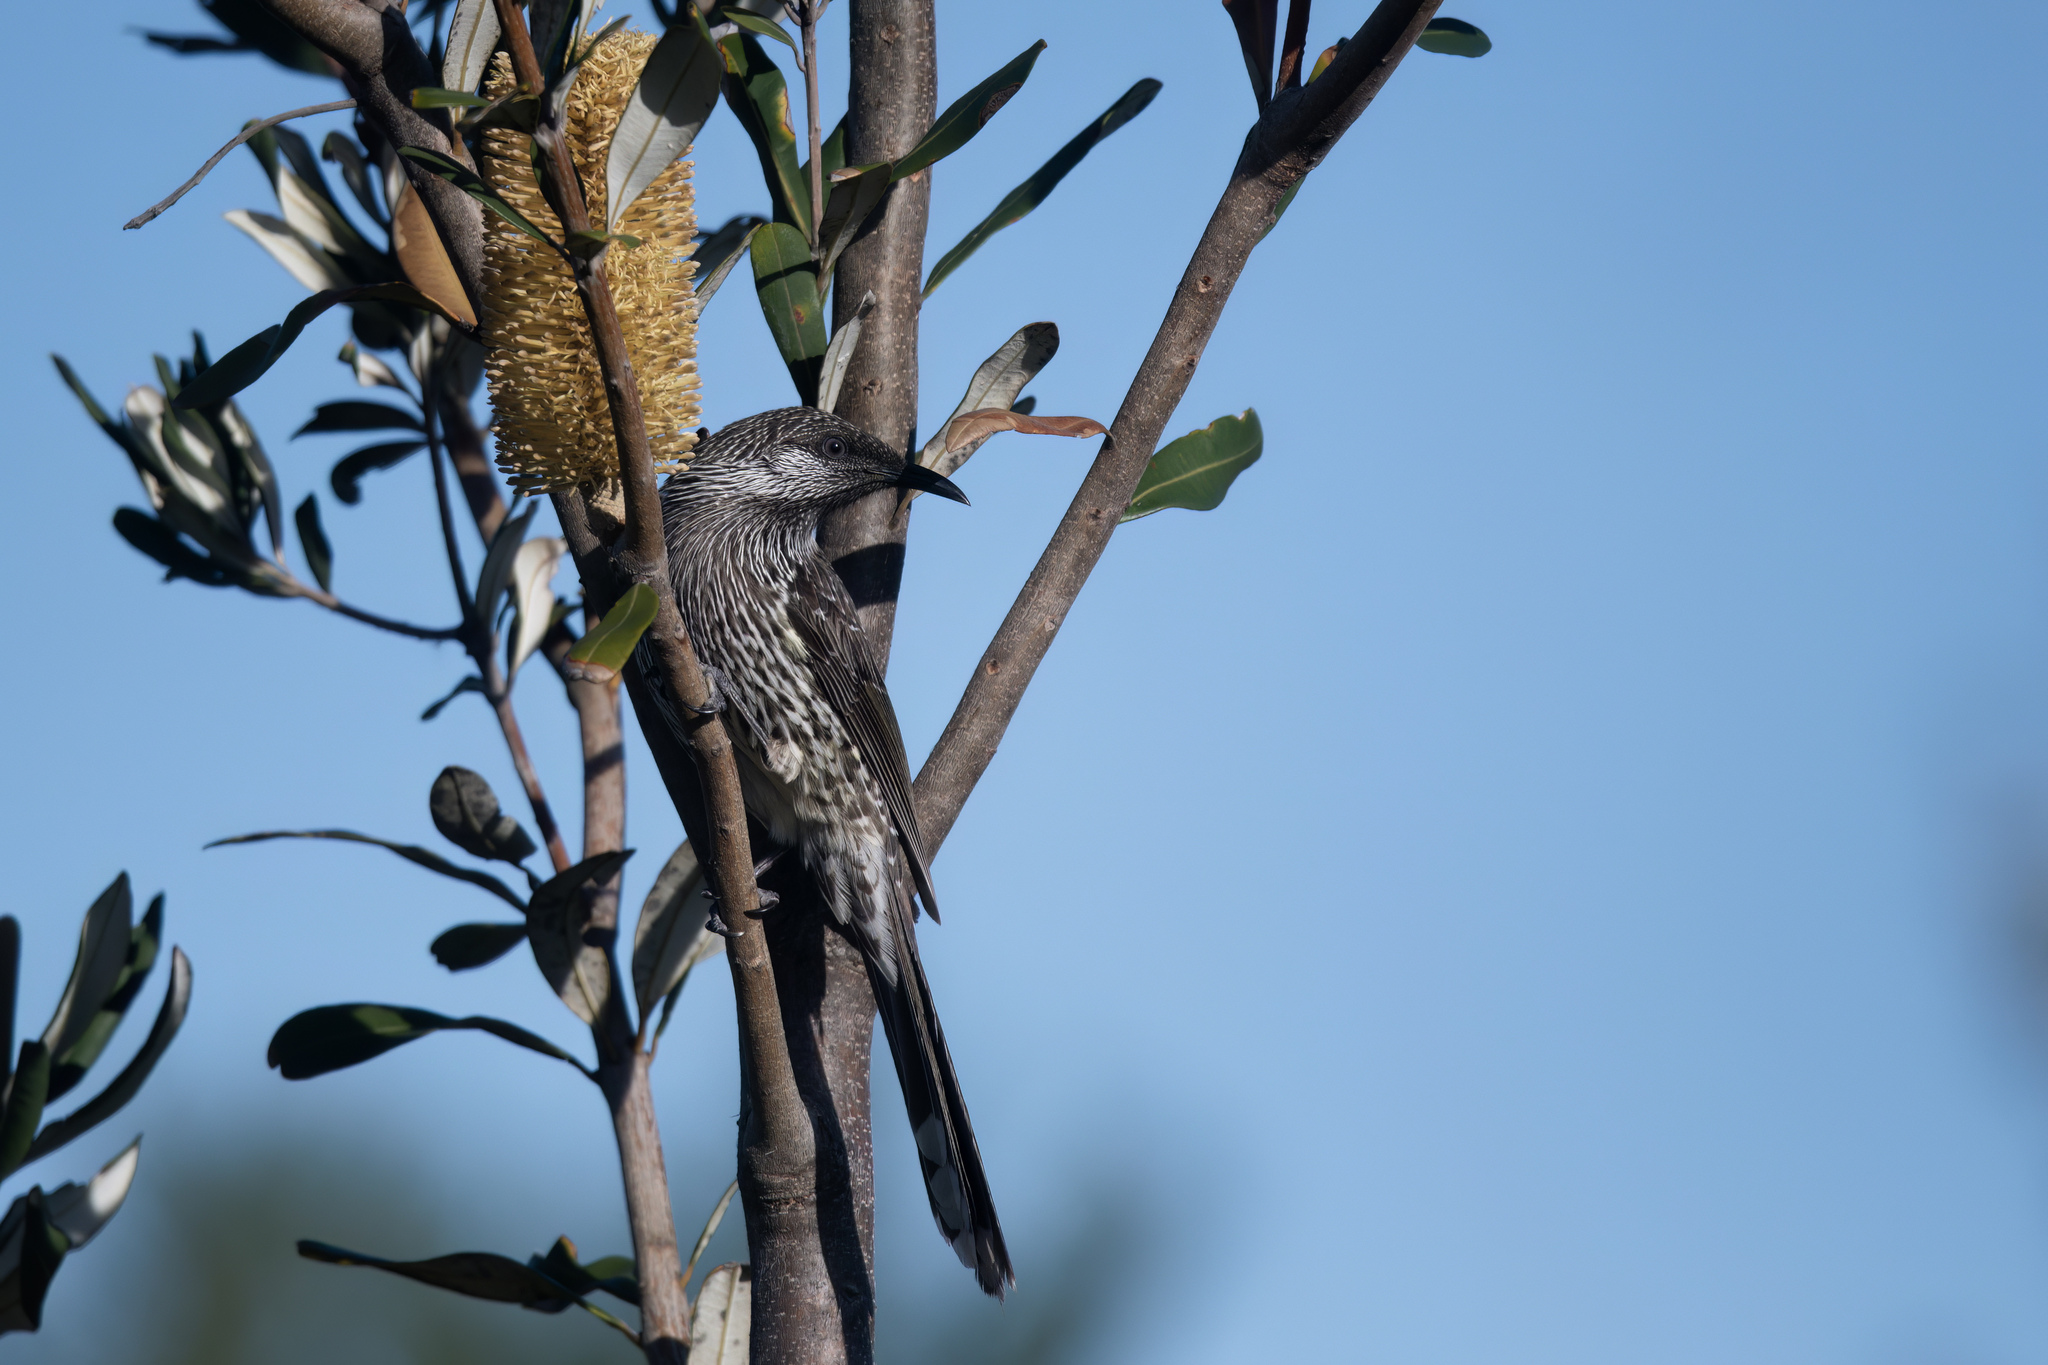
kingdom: Animalia
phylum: Chordata
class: Aves
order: Passeriformes
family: Meliphagidae
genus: Anthochaera
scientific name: Anthochaera chrysoptera
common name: Little wattlebird
